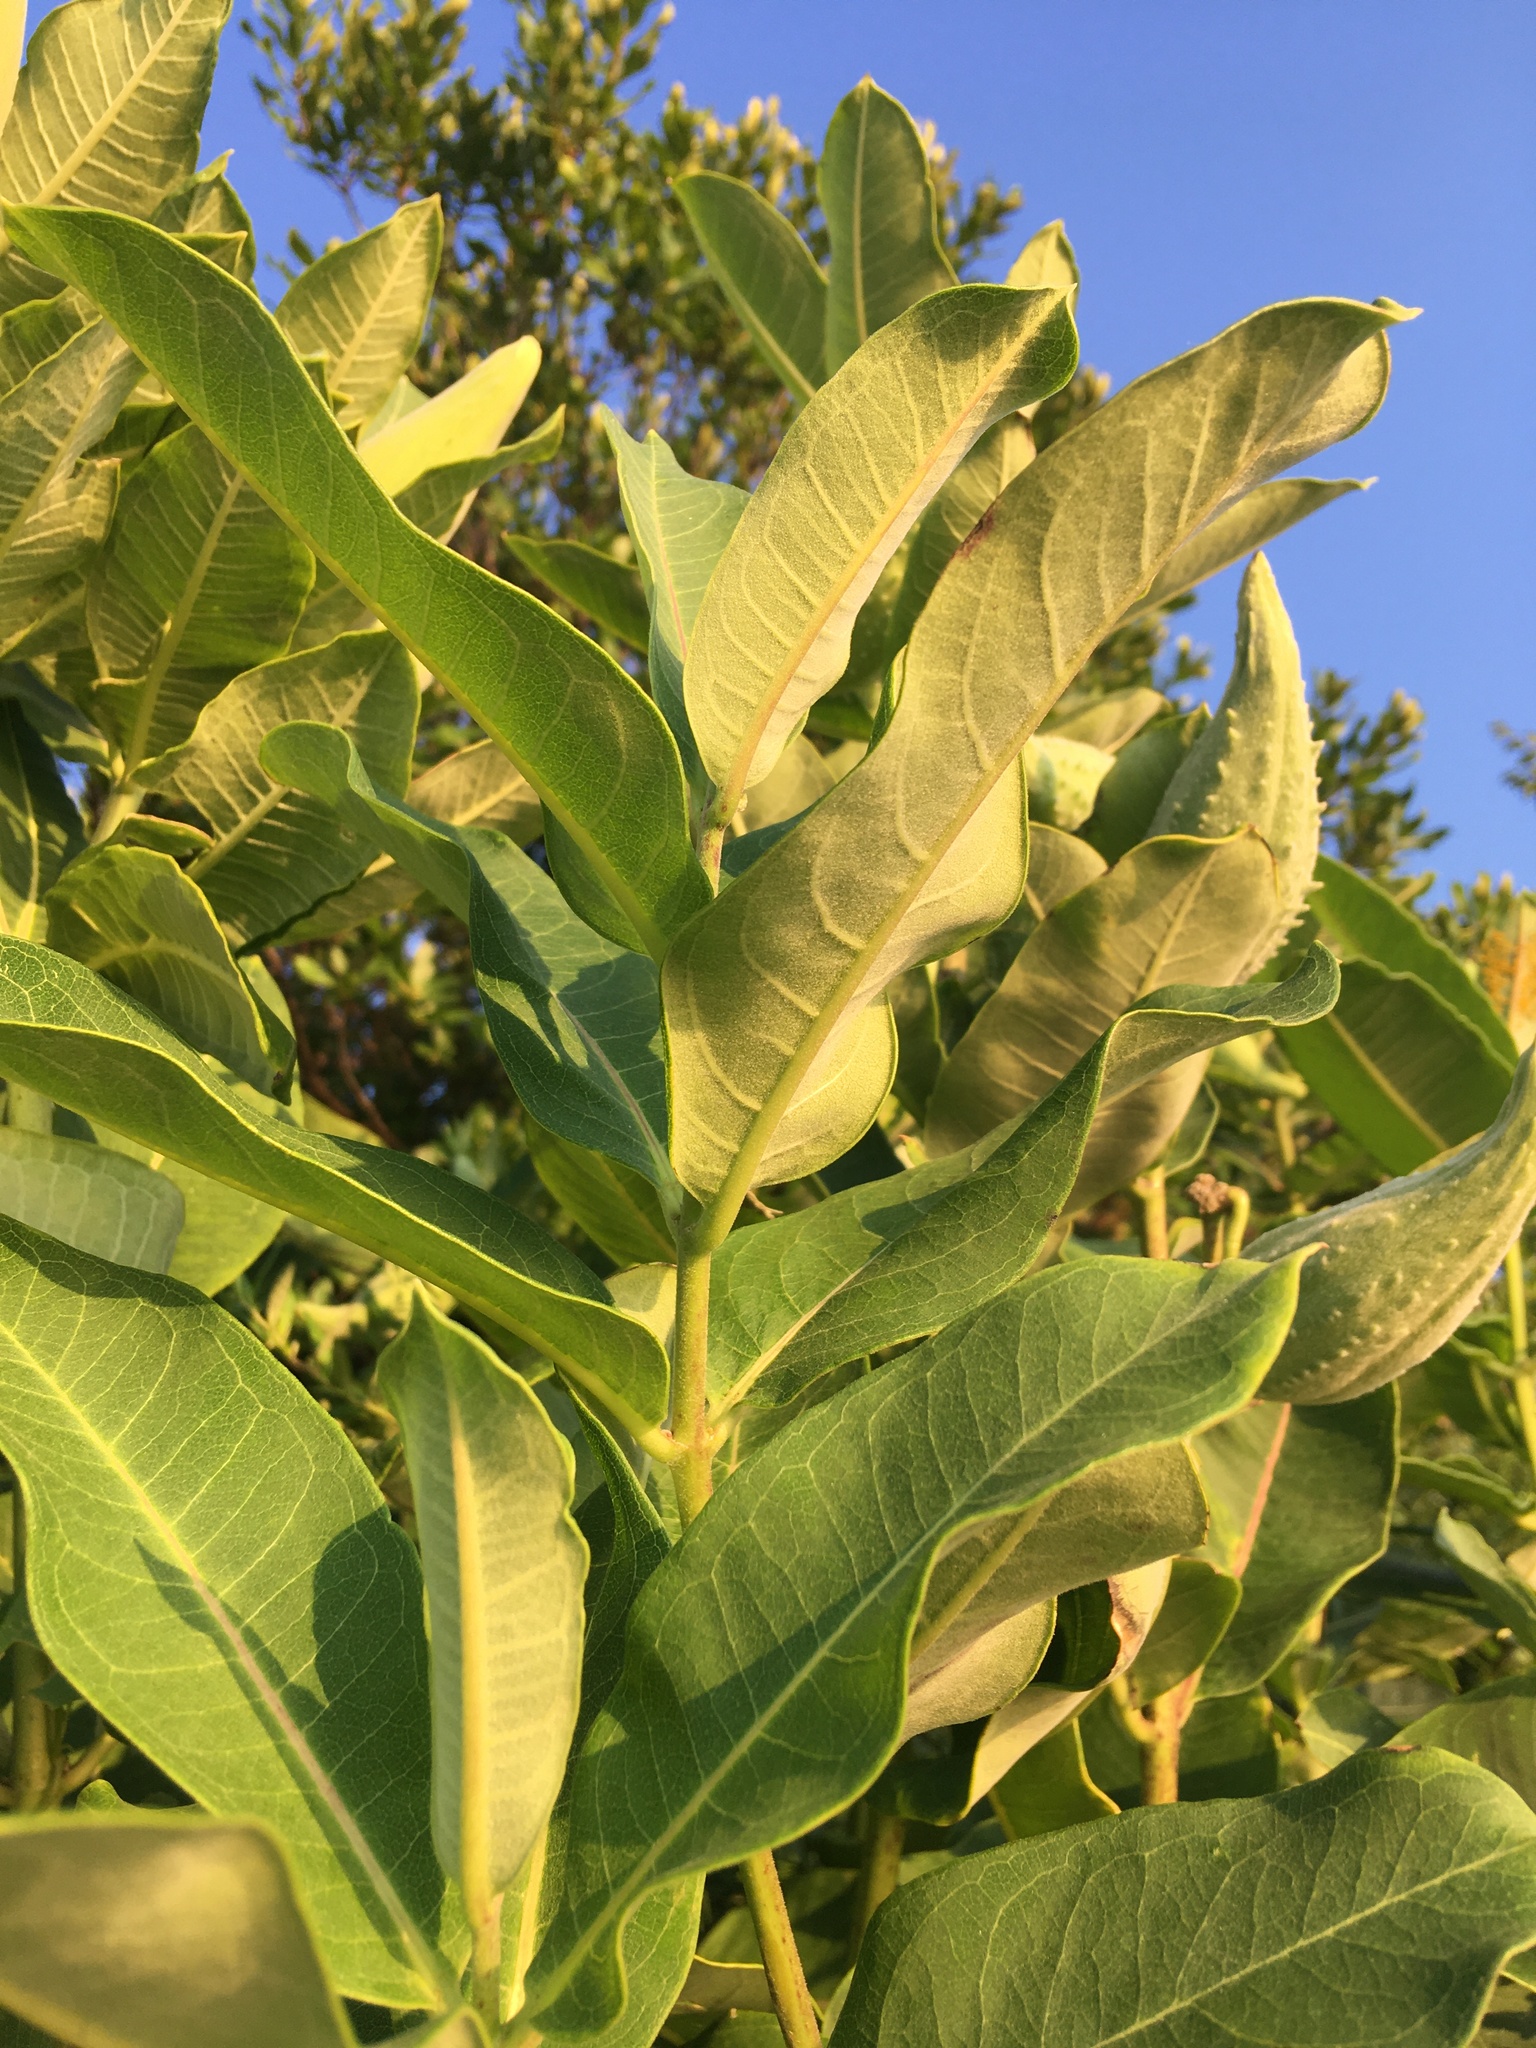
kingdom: Plantae
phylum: Tracheophyta
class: Magnoliopsida
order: Gentianales
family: Apocynaceae
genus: Asclepias
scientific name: Asclepias syriaca
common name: Common milkweed
